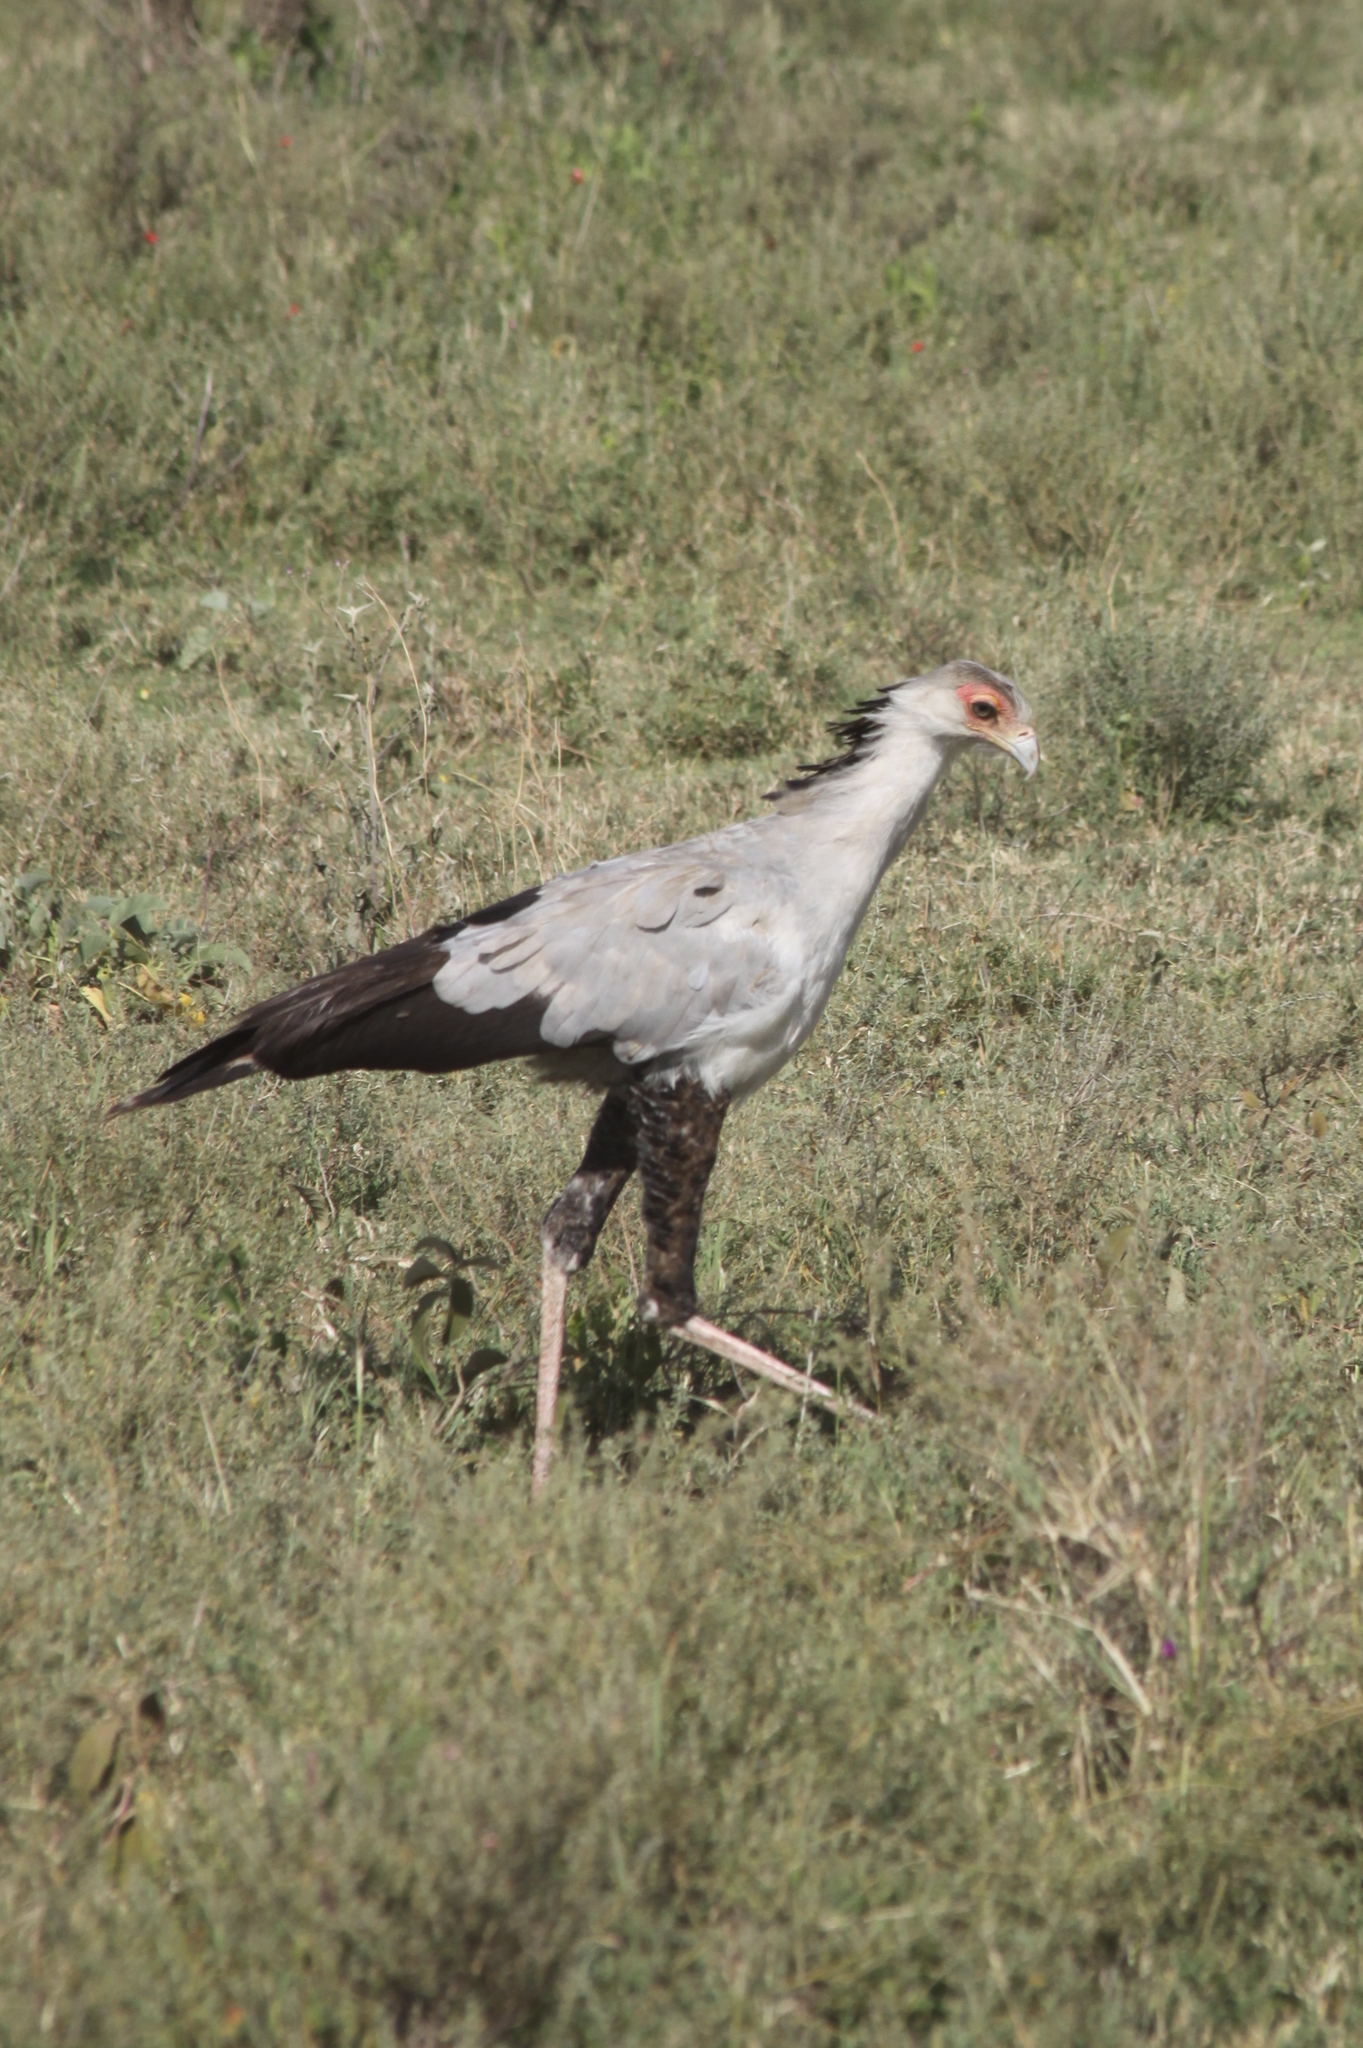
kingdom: Animalia
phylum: Chordata
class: Aves
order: Accipitriformes
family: Sagittariidae
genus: Sagittarius
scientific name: Sagittarius serpentarius
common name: Secretarybird
